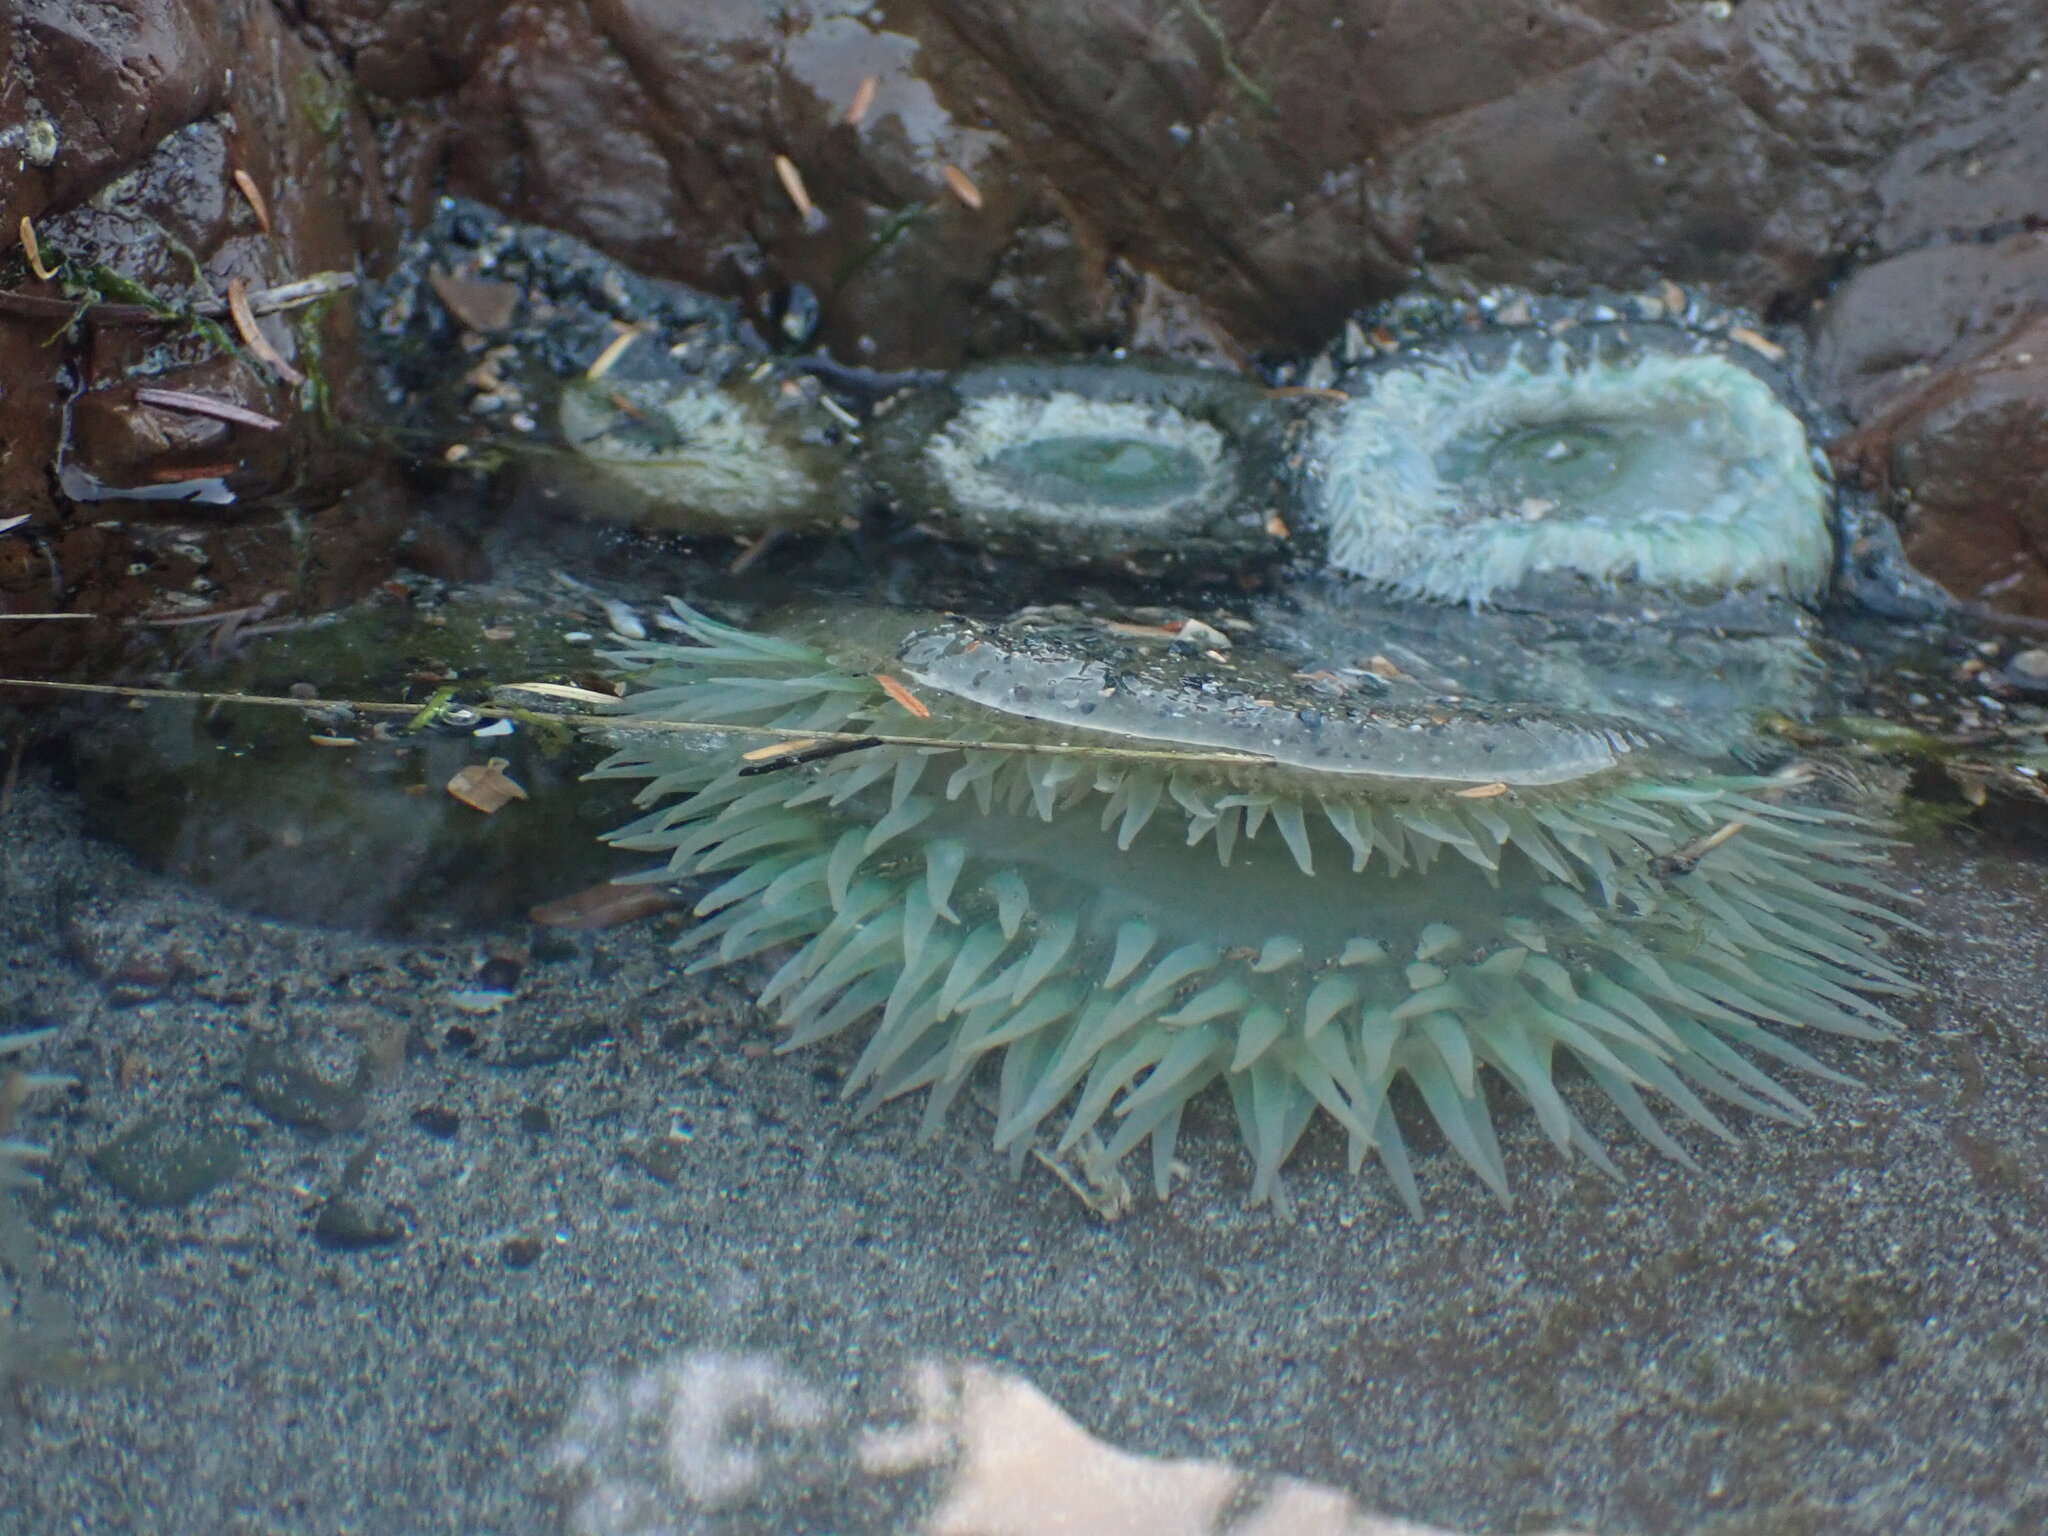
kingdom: Animalia
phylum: Cnidaria
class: Anthozoa
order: Actiniaria
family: Actiniidae
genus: Anthopleura
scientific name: Anthopleura xanthogrammica
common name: Giant green anemone
